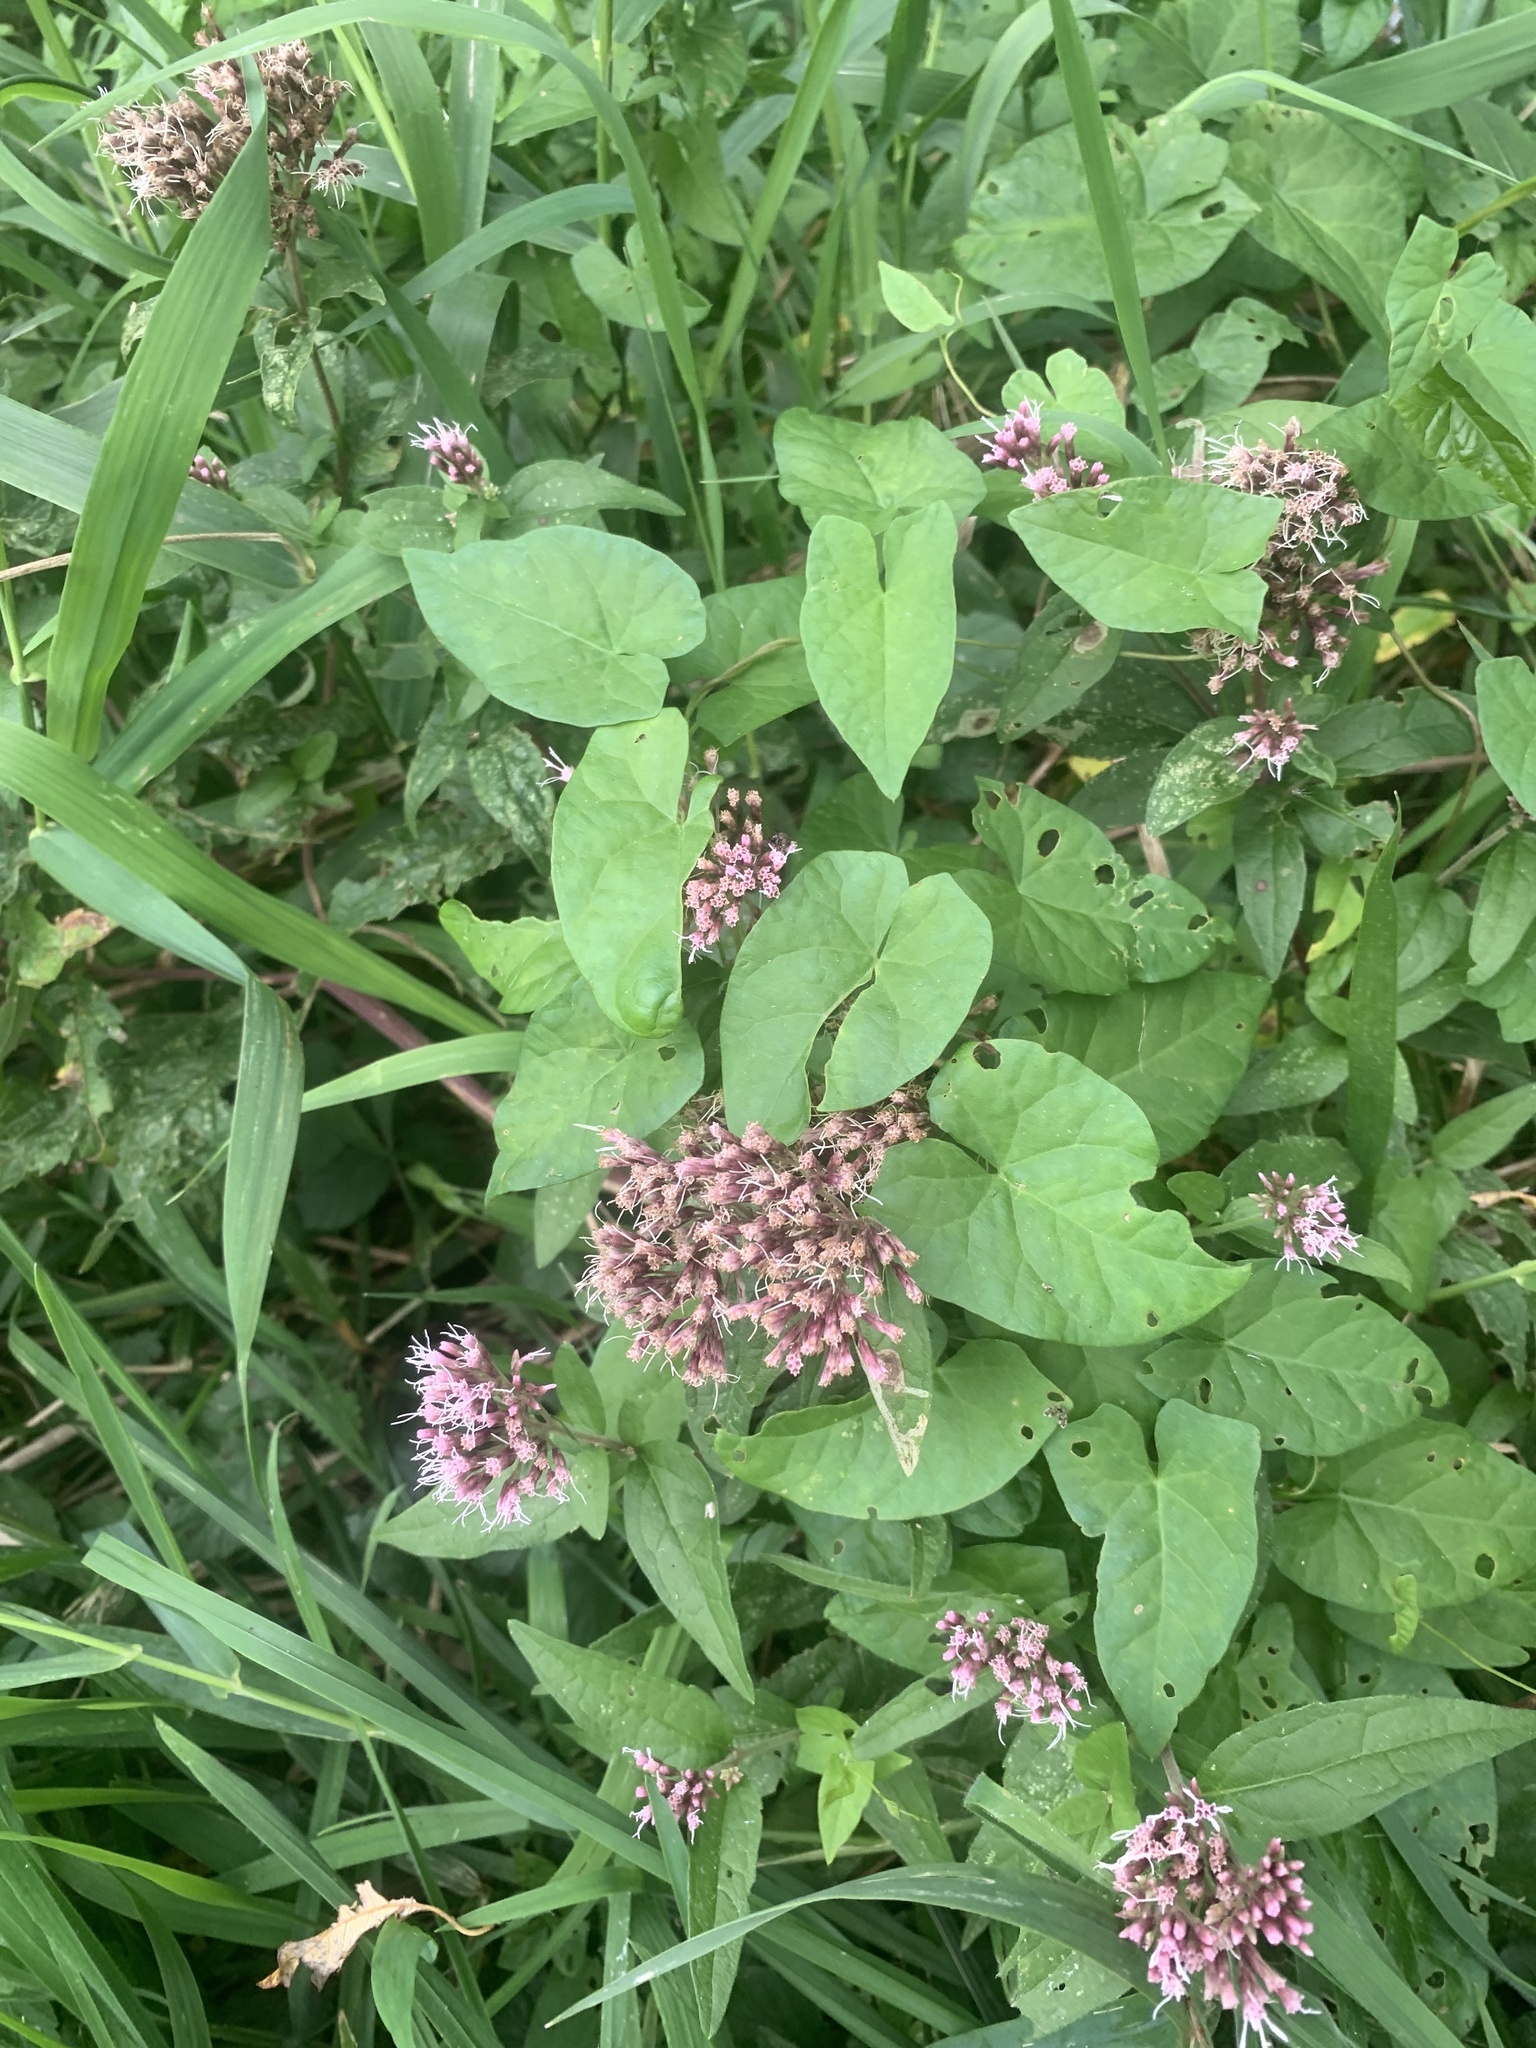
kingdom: Plantae
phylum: Tracheophyta
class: Magnoliopsida
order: Asterales
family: Asteraceae
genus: Eupatorium
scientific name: Eupatorium cannabinum
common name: Hemp-agrimony
